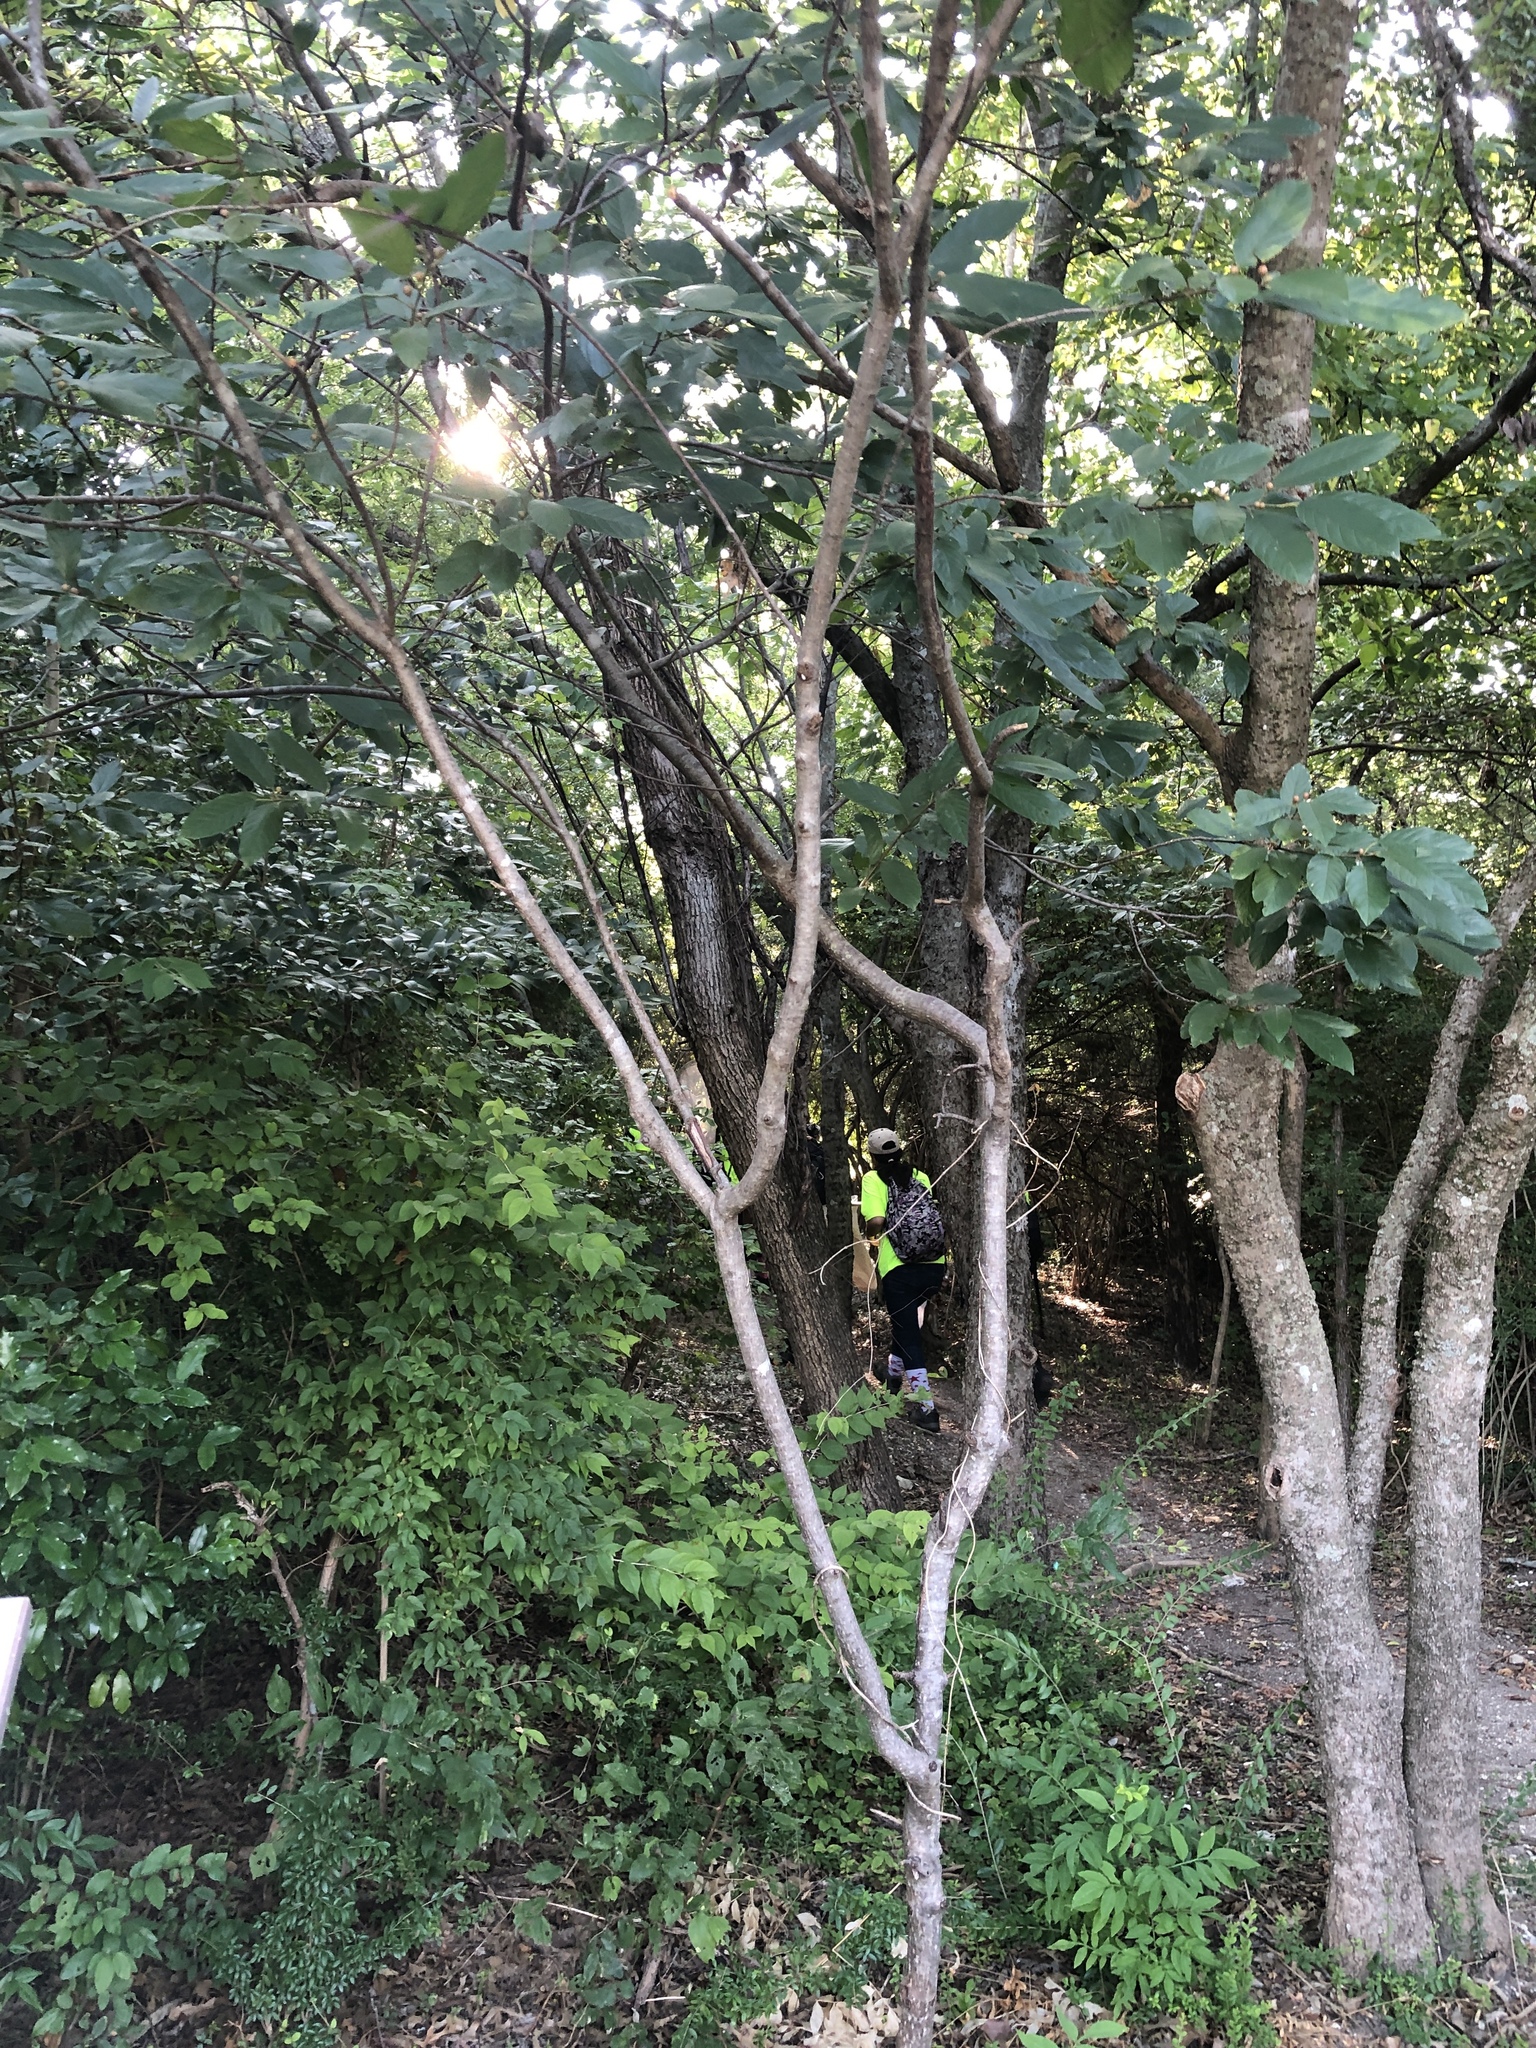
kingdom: Plantae
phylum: Tracheophyta
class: Magnoliopsida
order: Rosales
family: Rhamnaceae
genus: Frangula
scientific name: Frangula caroliniana
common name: Carolina buckthorn
